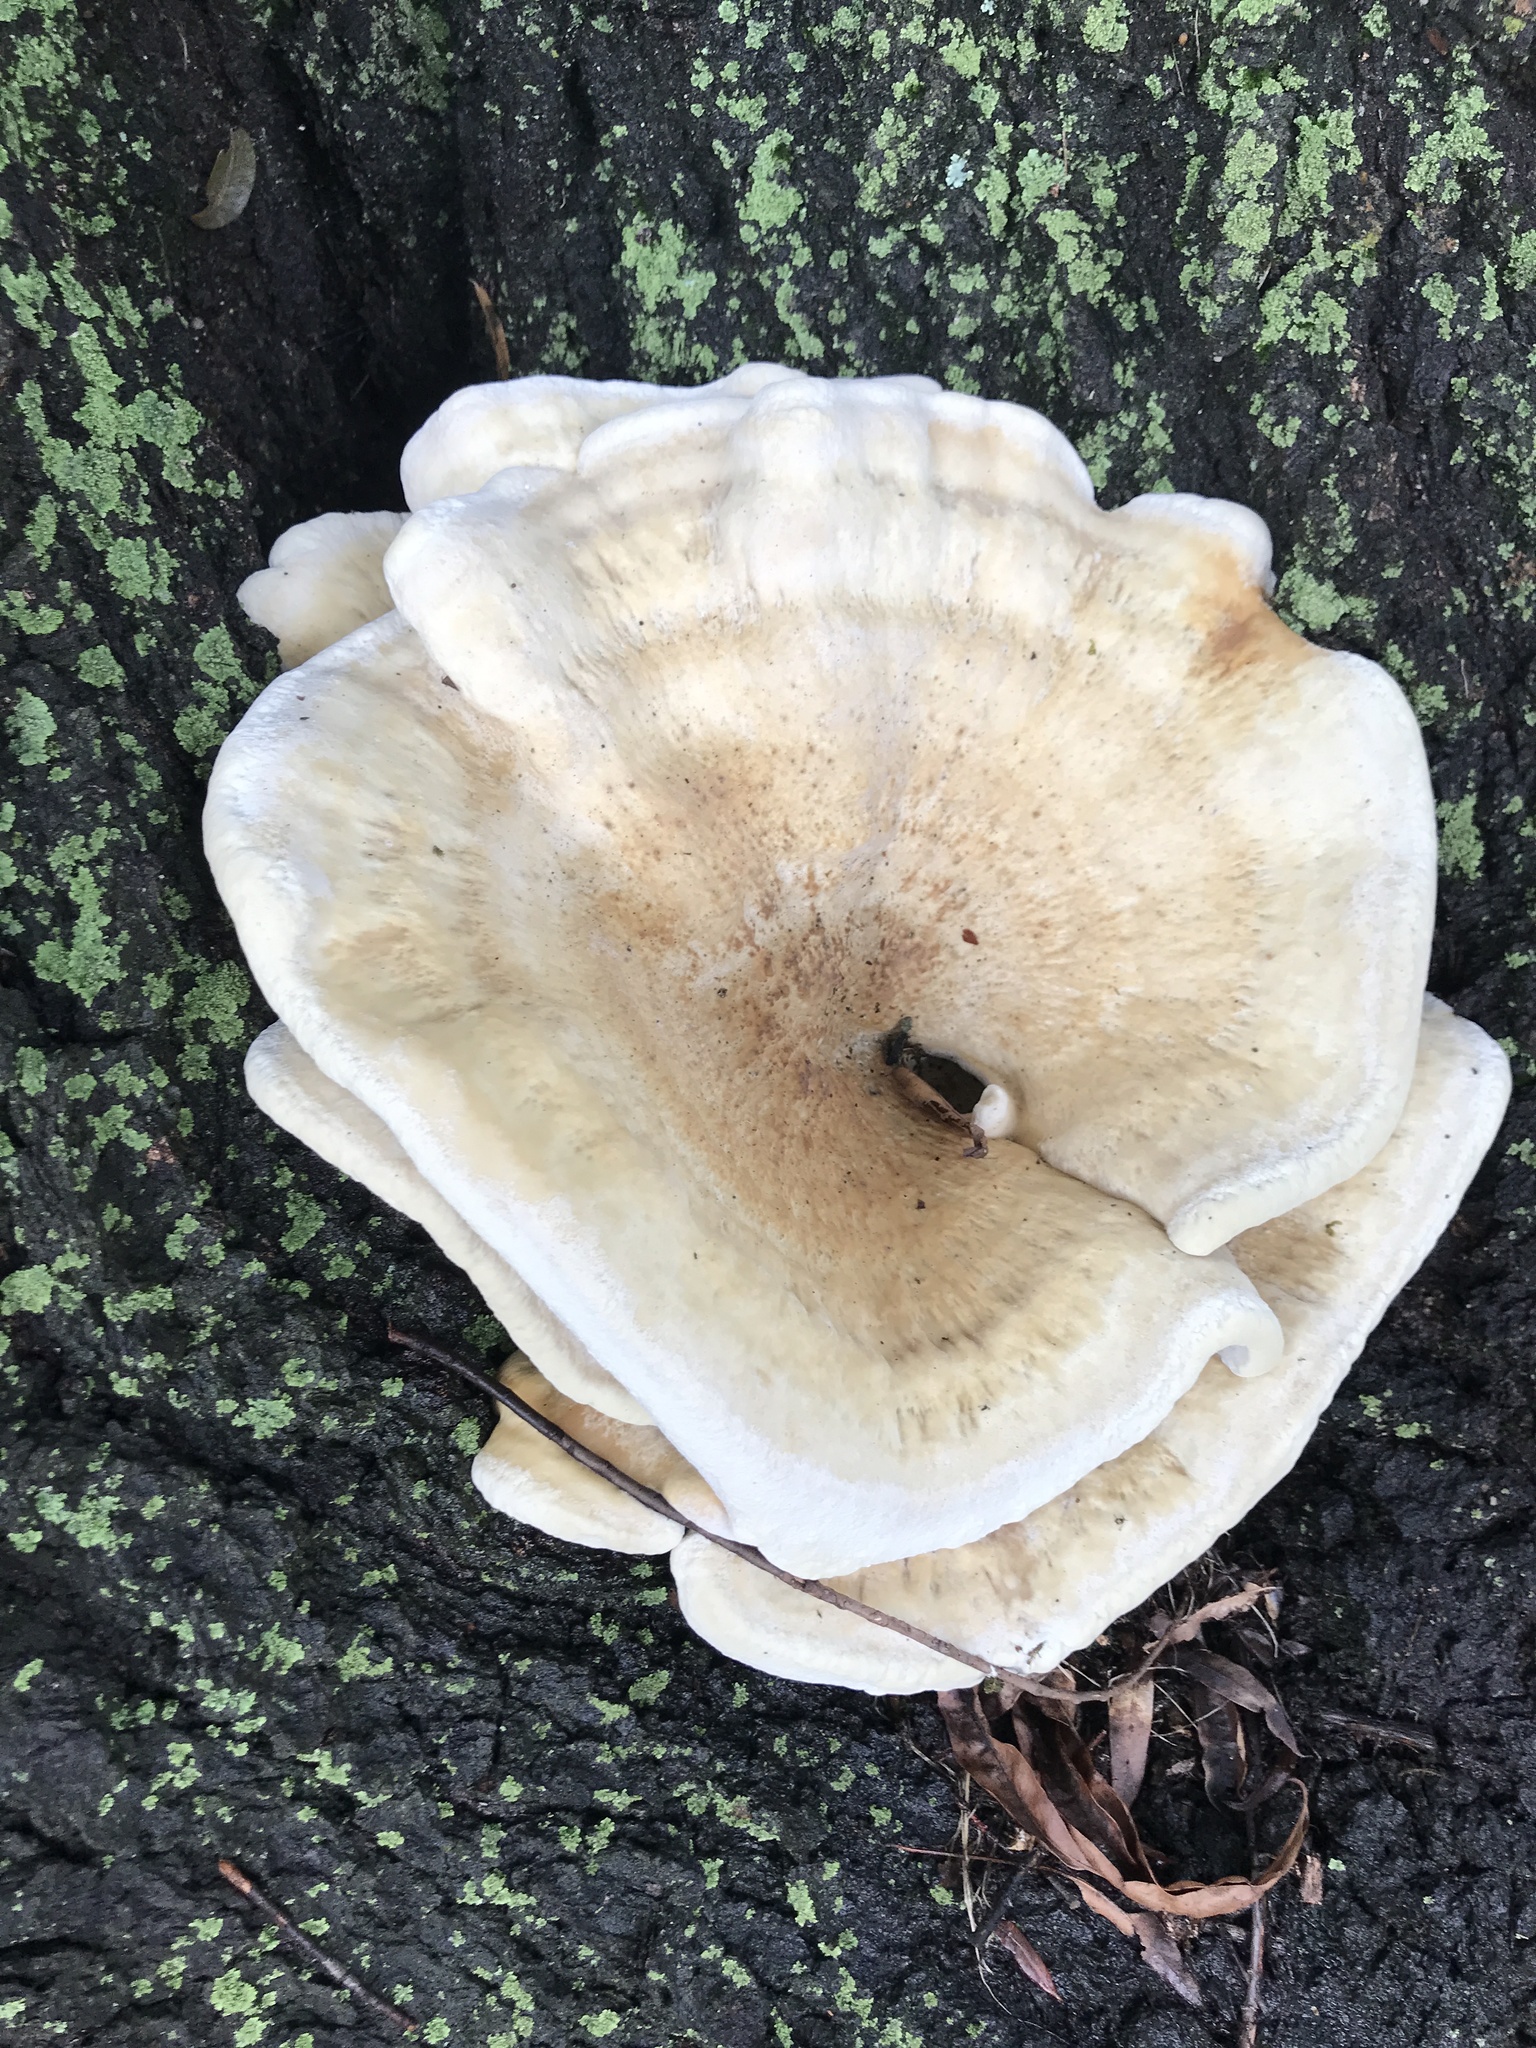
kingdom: Fungi
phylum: Basidiomycota
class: Agaricomycetes
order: Russulales
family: Bondarzewiaceae
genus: Bondarzewia
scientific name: Bondarzewia berkeleyi
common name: Berkeley's polypore
